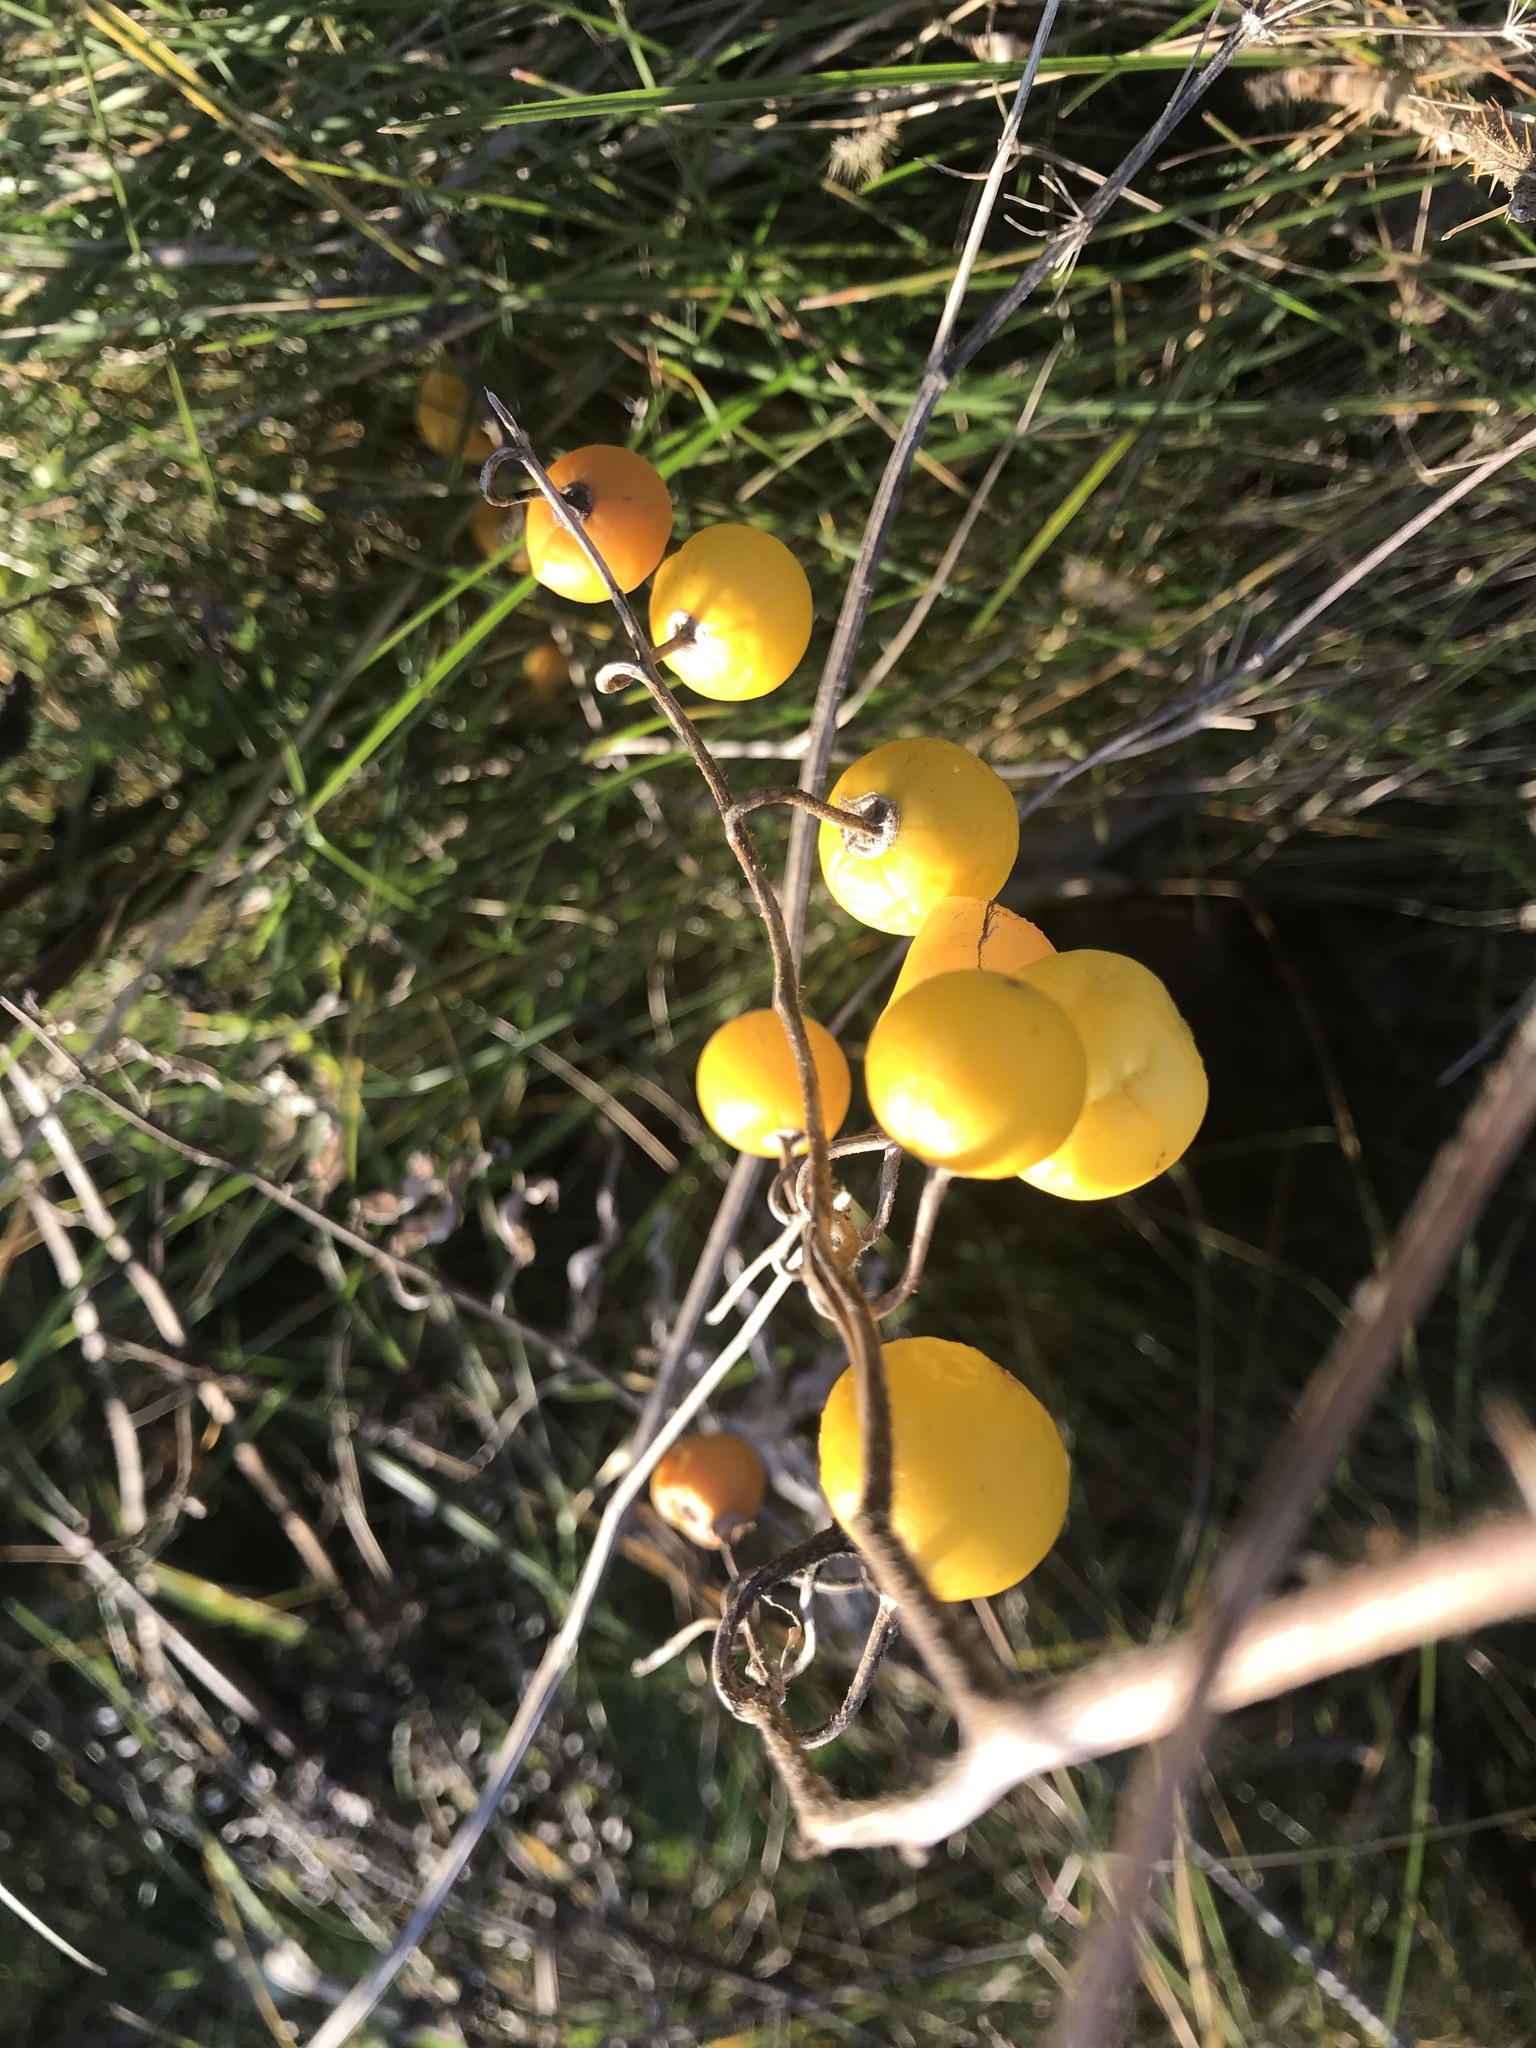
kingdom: Plantae
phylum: Tracheophyta
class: Magnoliopsida
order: Solanales
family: Solanaceae
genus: Solanum
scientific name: Solanum carolinense
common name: Horse-nettle
